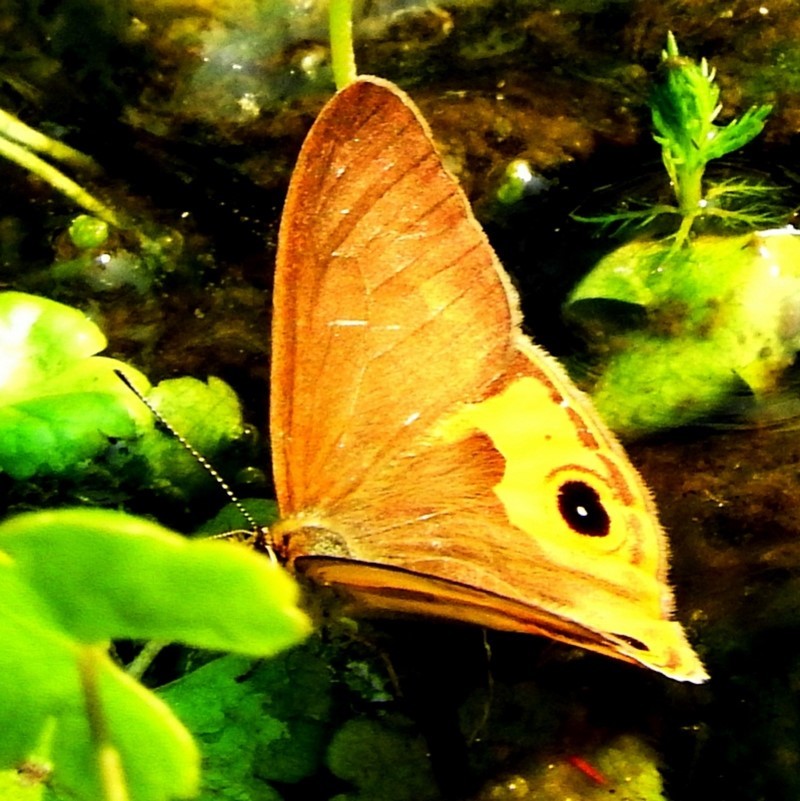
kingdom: Animalia
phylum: Arthropoda
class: Insecta
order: Lepidoptera
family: Nymphalidae
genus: Hypocysta
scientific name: Hypocysta metirius
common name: Brown ringlet
